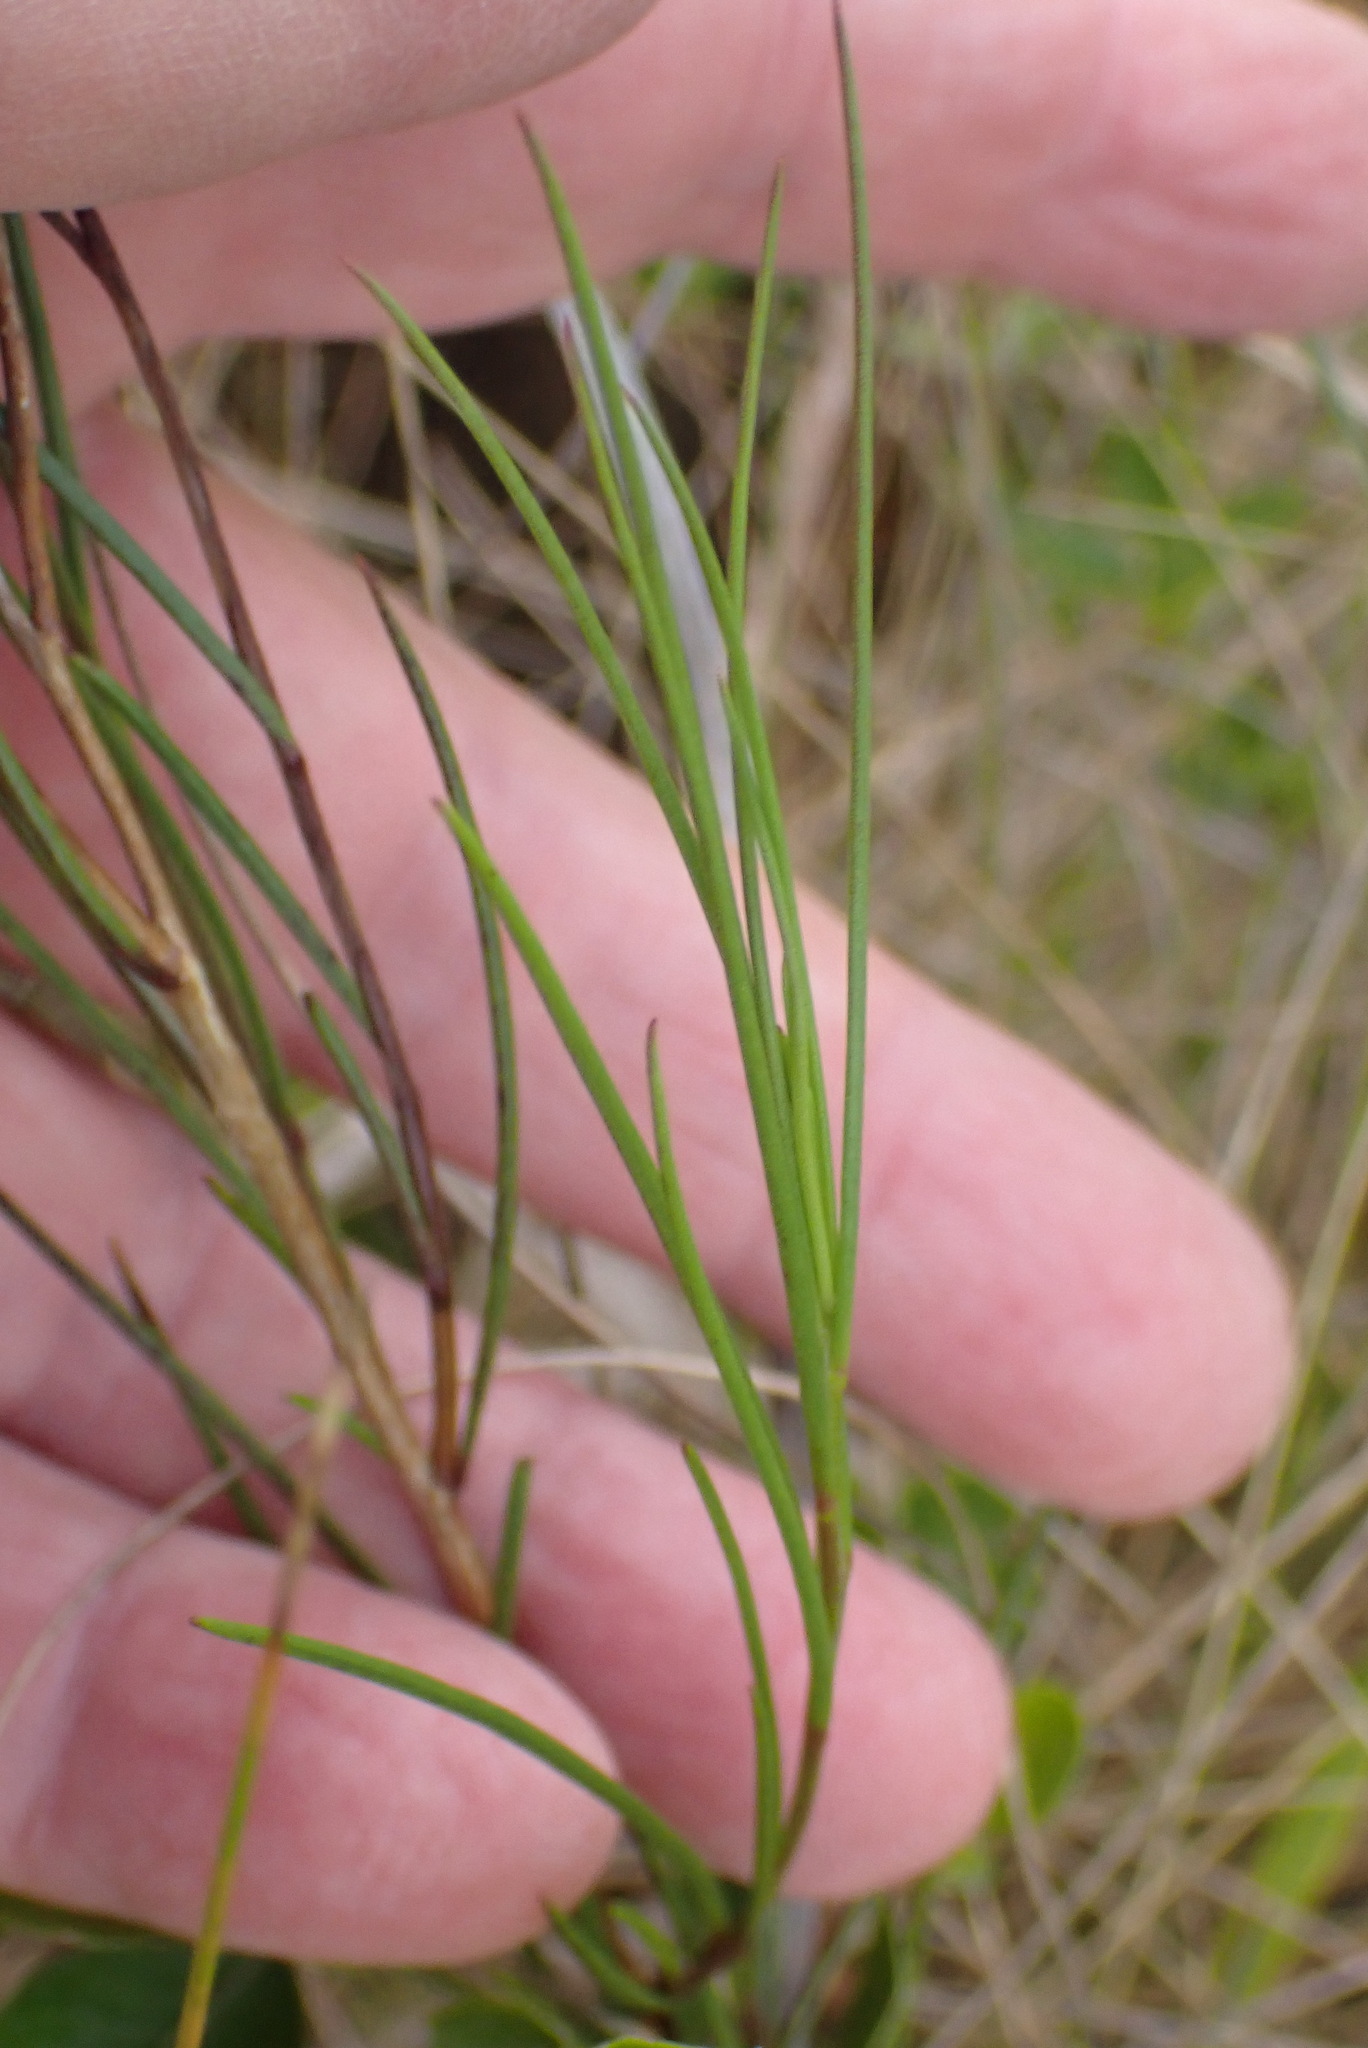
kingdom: Plantae
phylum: Tracheophyta
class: Magnoliopsida
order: Brassicales
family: Brassicaceae
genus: Heliophila
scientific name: Heliophila linearis
